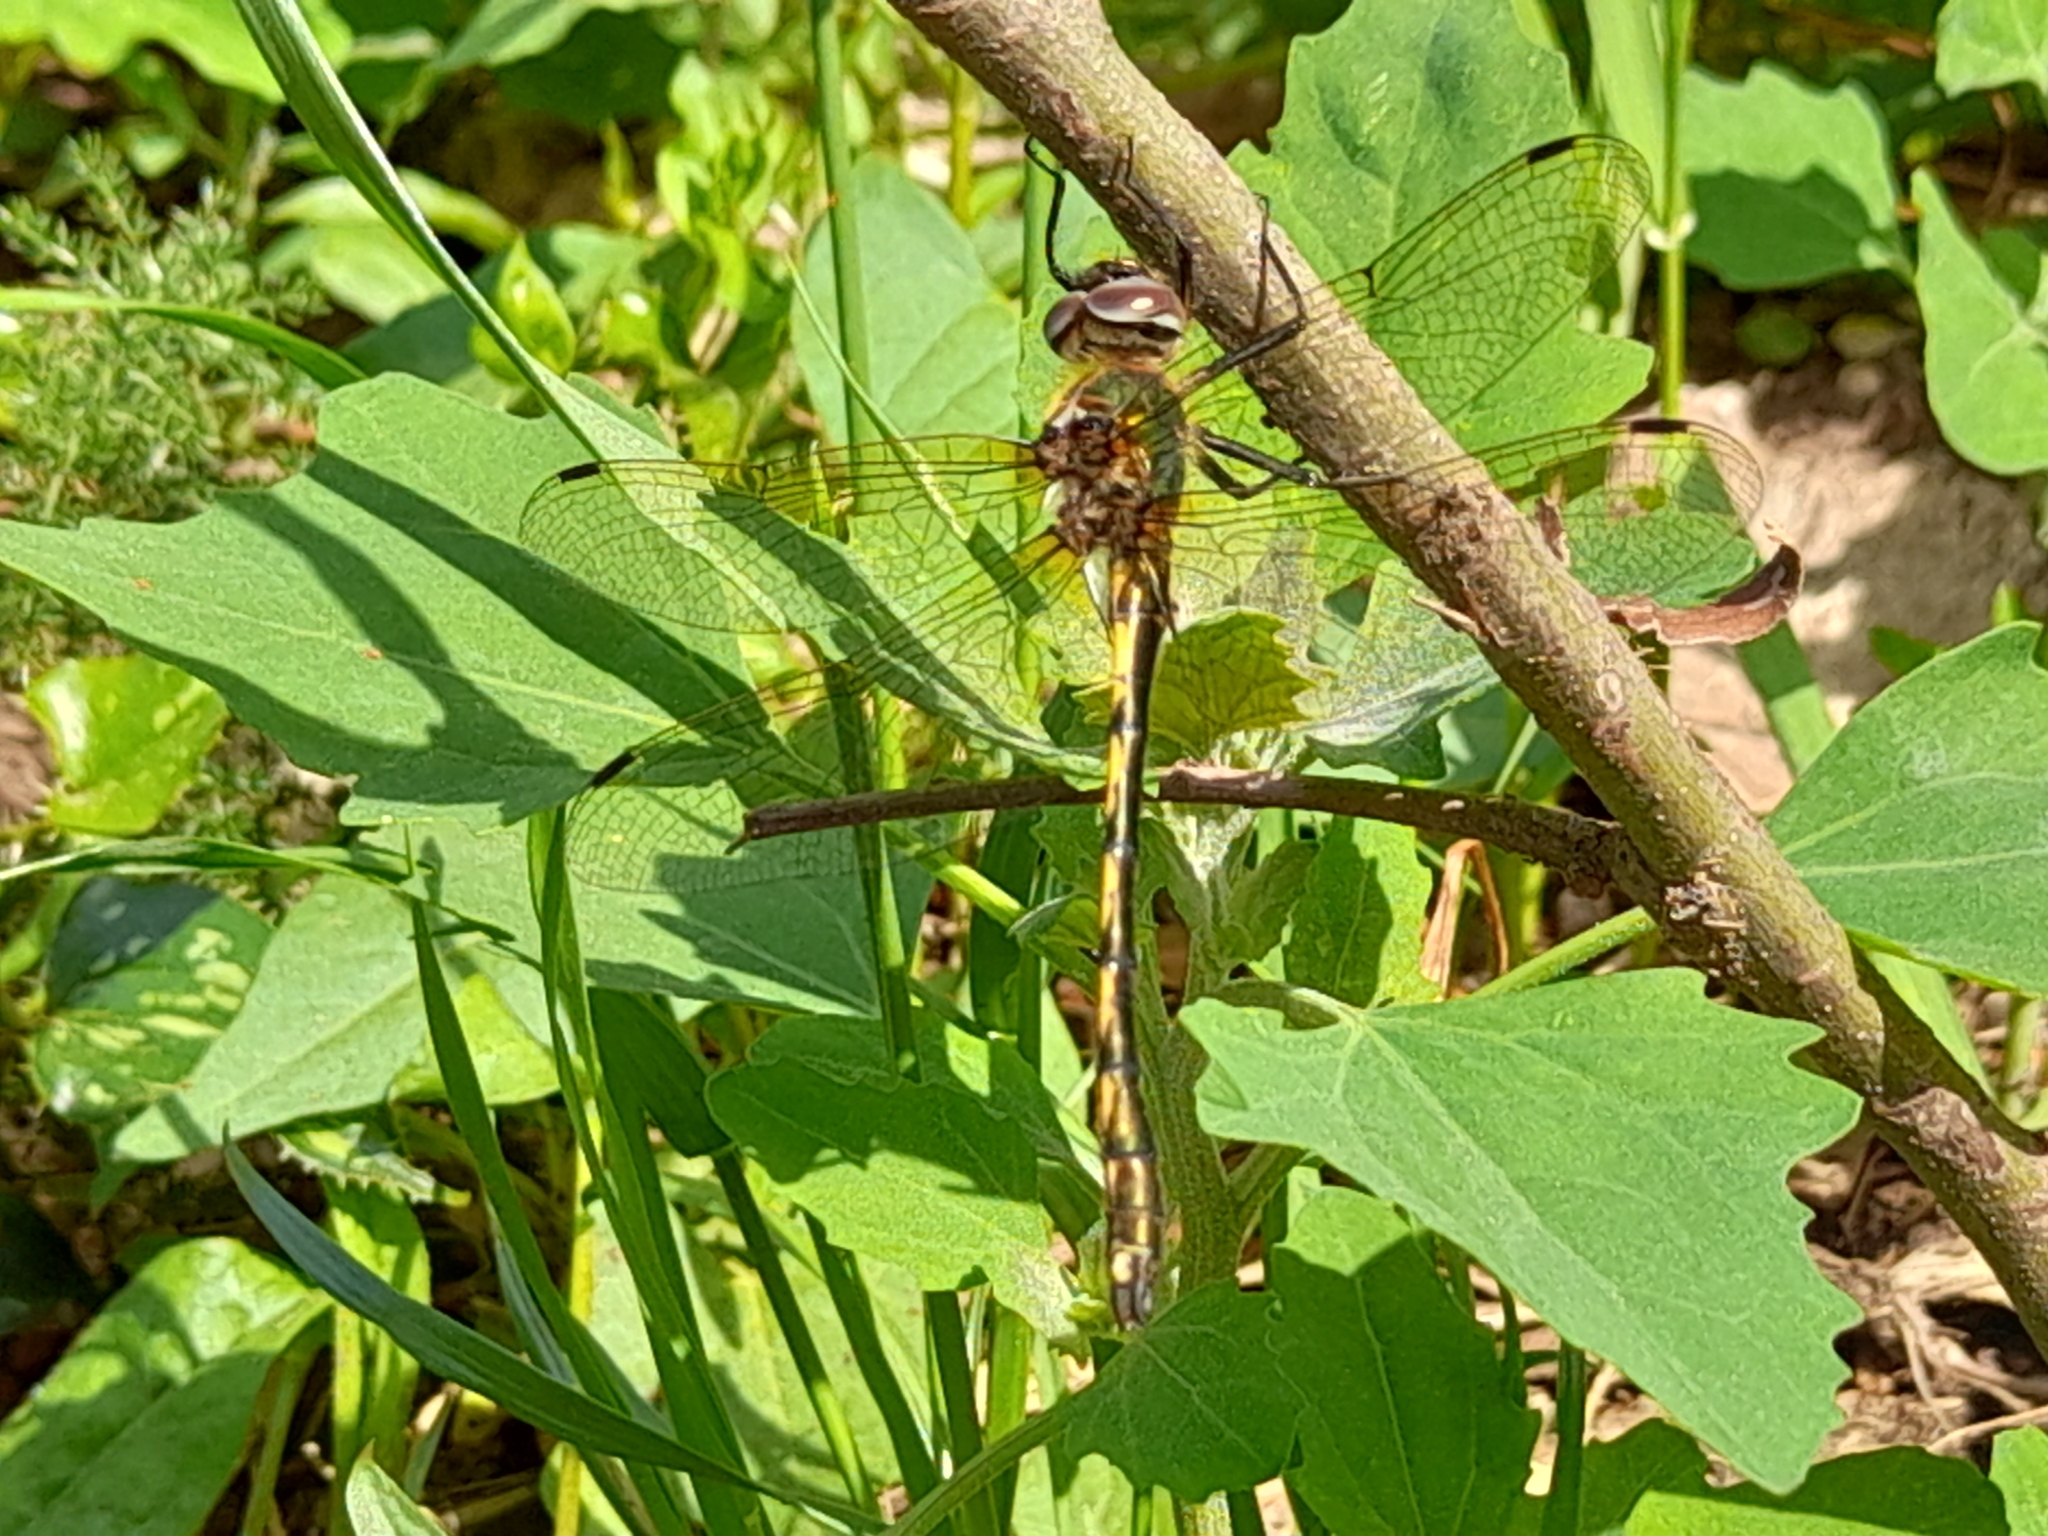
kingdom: Animalia
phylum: Arthropoda
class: Insecta
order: Odonata
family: Corduliidae
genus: Oxygastra
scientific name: Oxygastra curtisii
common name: Orange-spotted emerald
